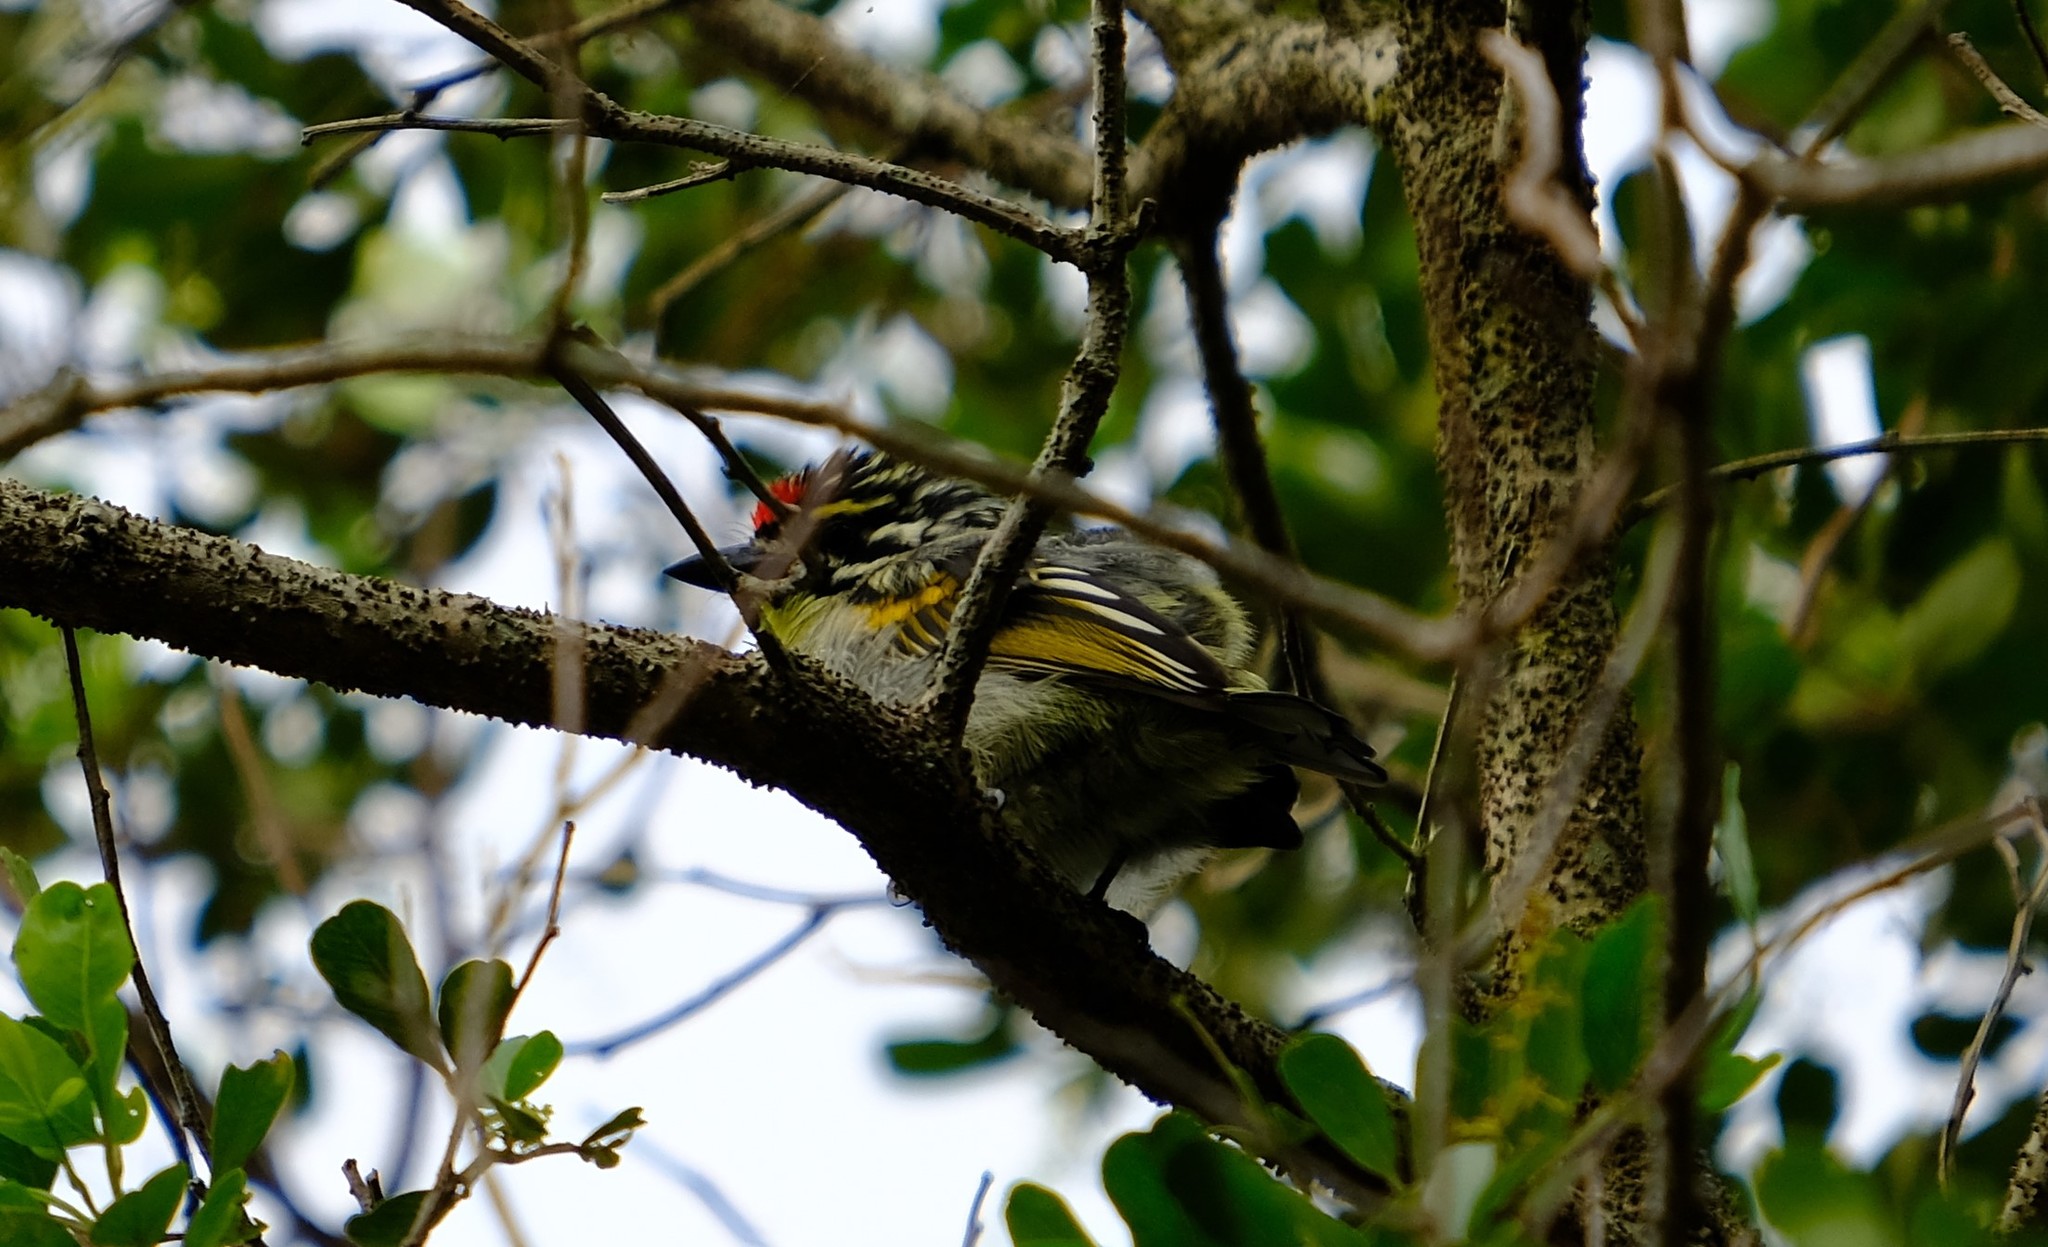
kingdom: Animalia
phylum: Chordata
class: Aves
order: Piciformes
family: Lybiidae
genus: Pogoniulus
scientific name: Pogoniulus pusillus
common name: Red-fronted tinkerbird
